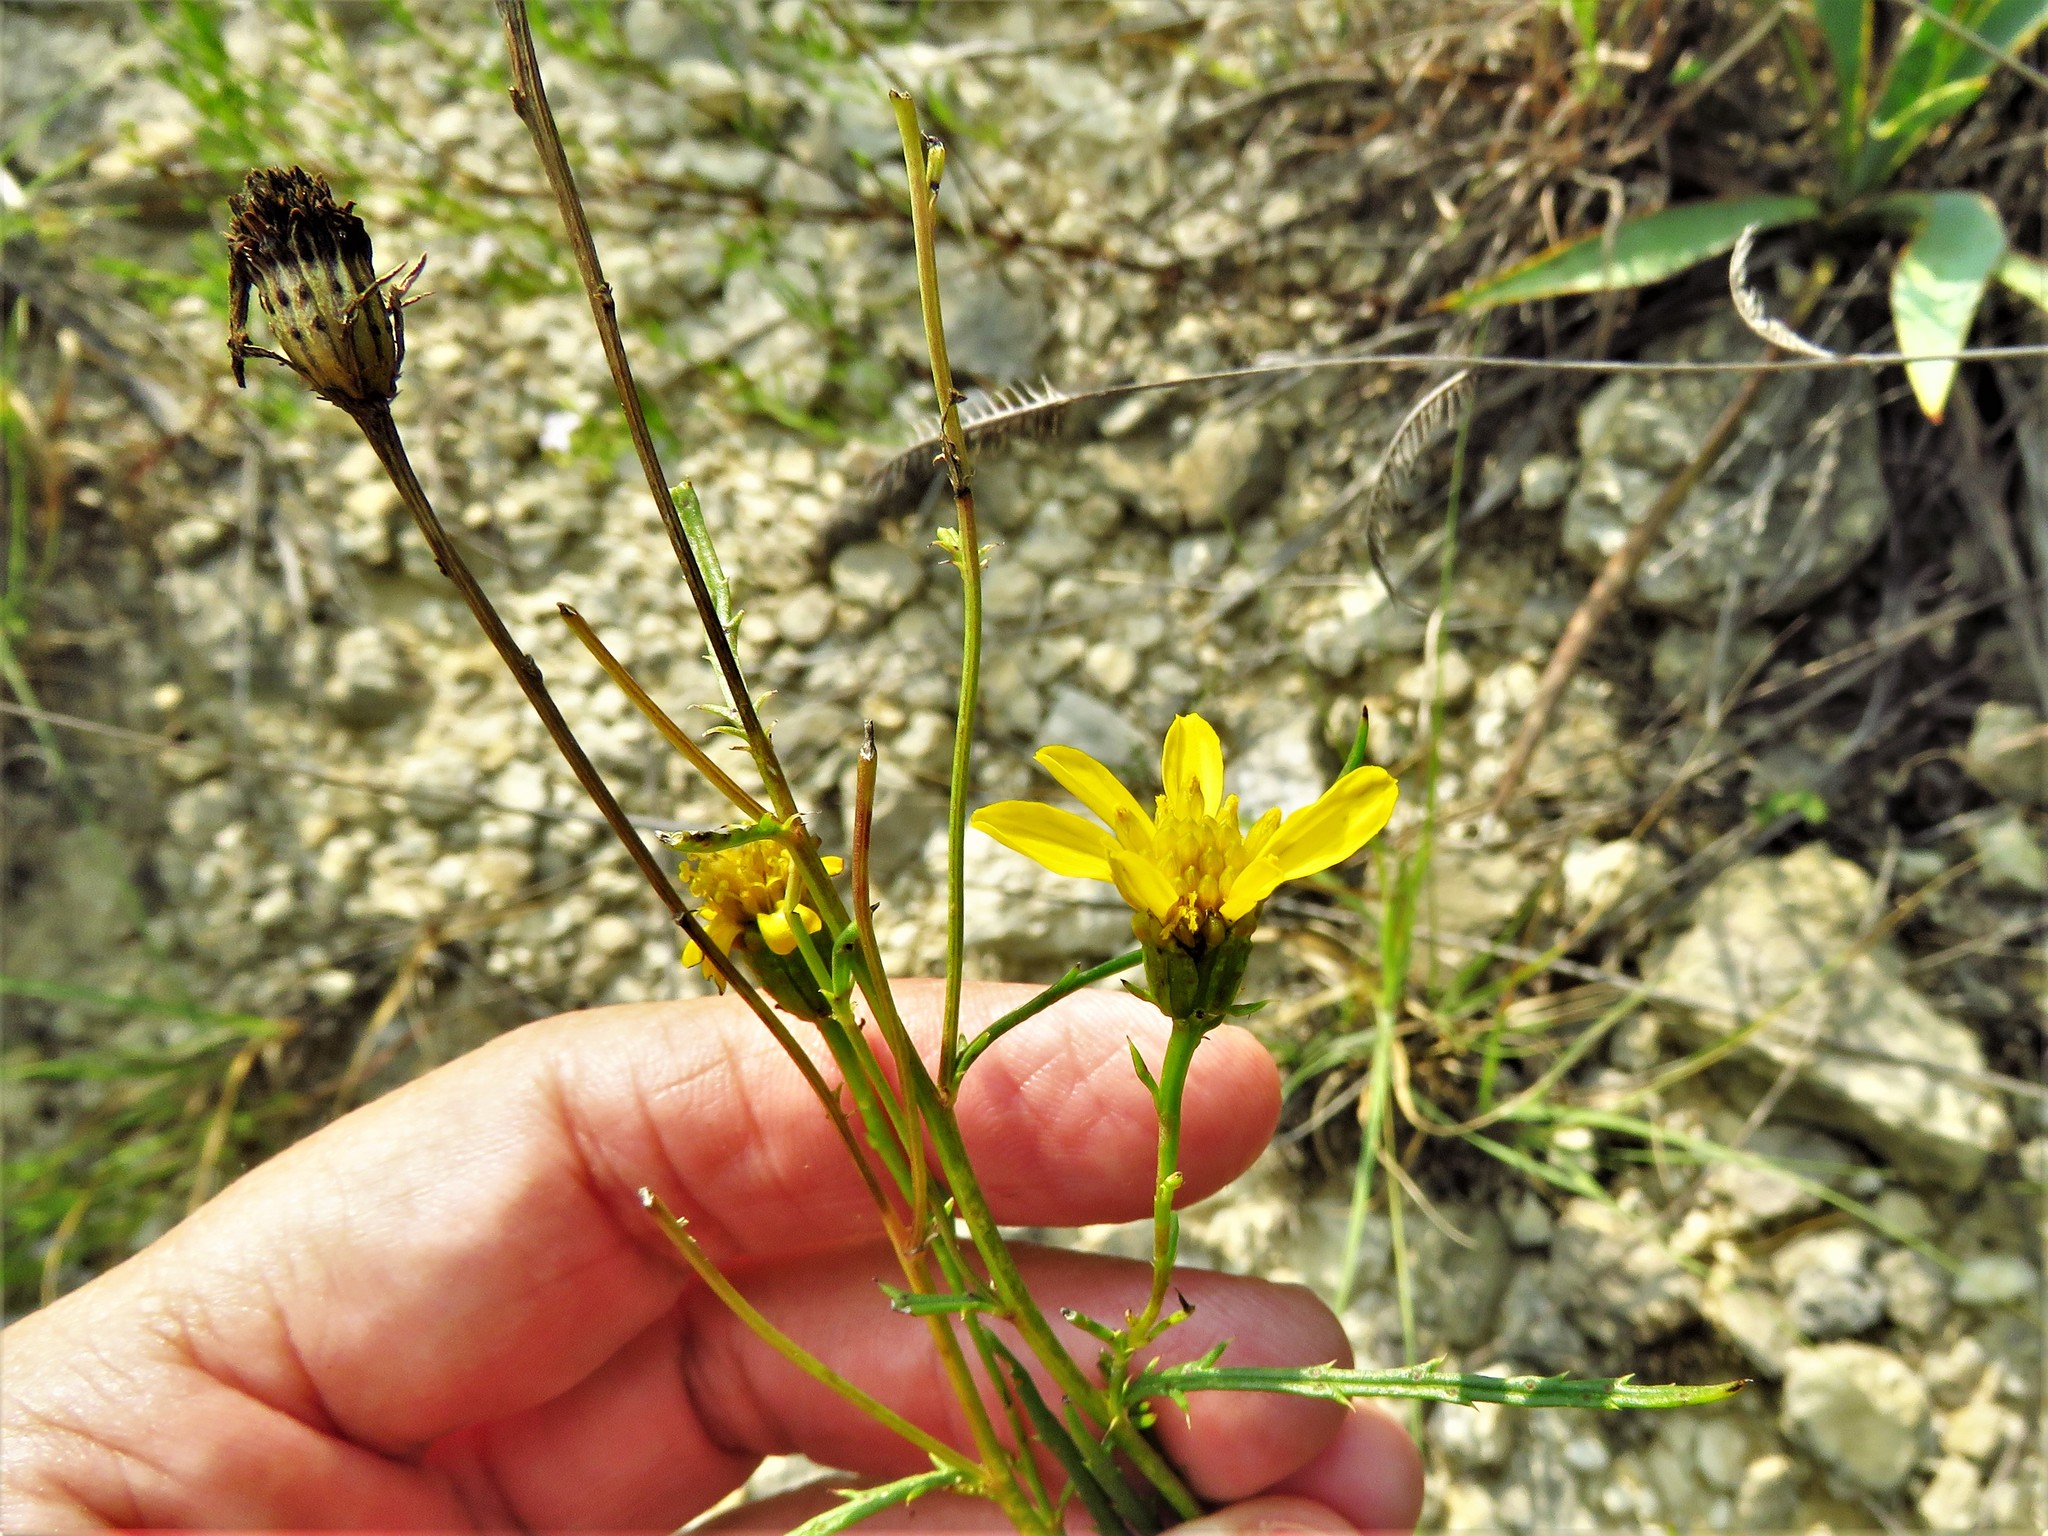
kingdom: Plantae
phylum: Tracheophyta
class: Magnoliopsida
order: Asterales
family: Asteraceae
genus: Dysodiopsis
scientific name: Dysodiopsis tagetoides
